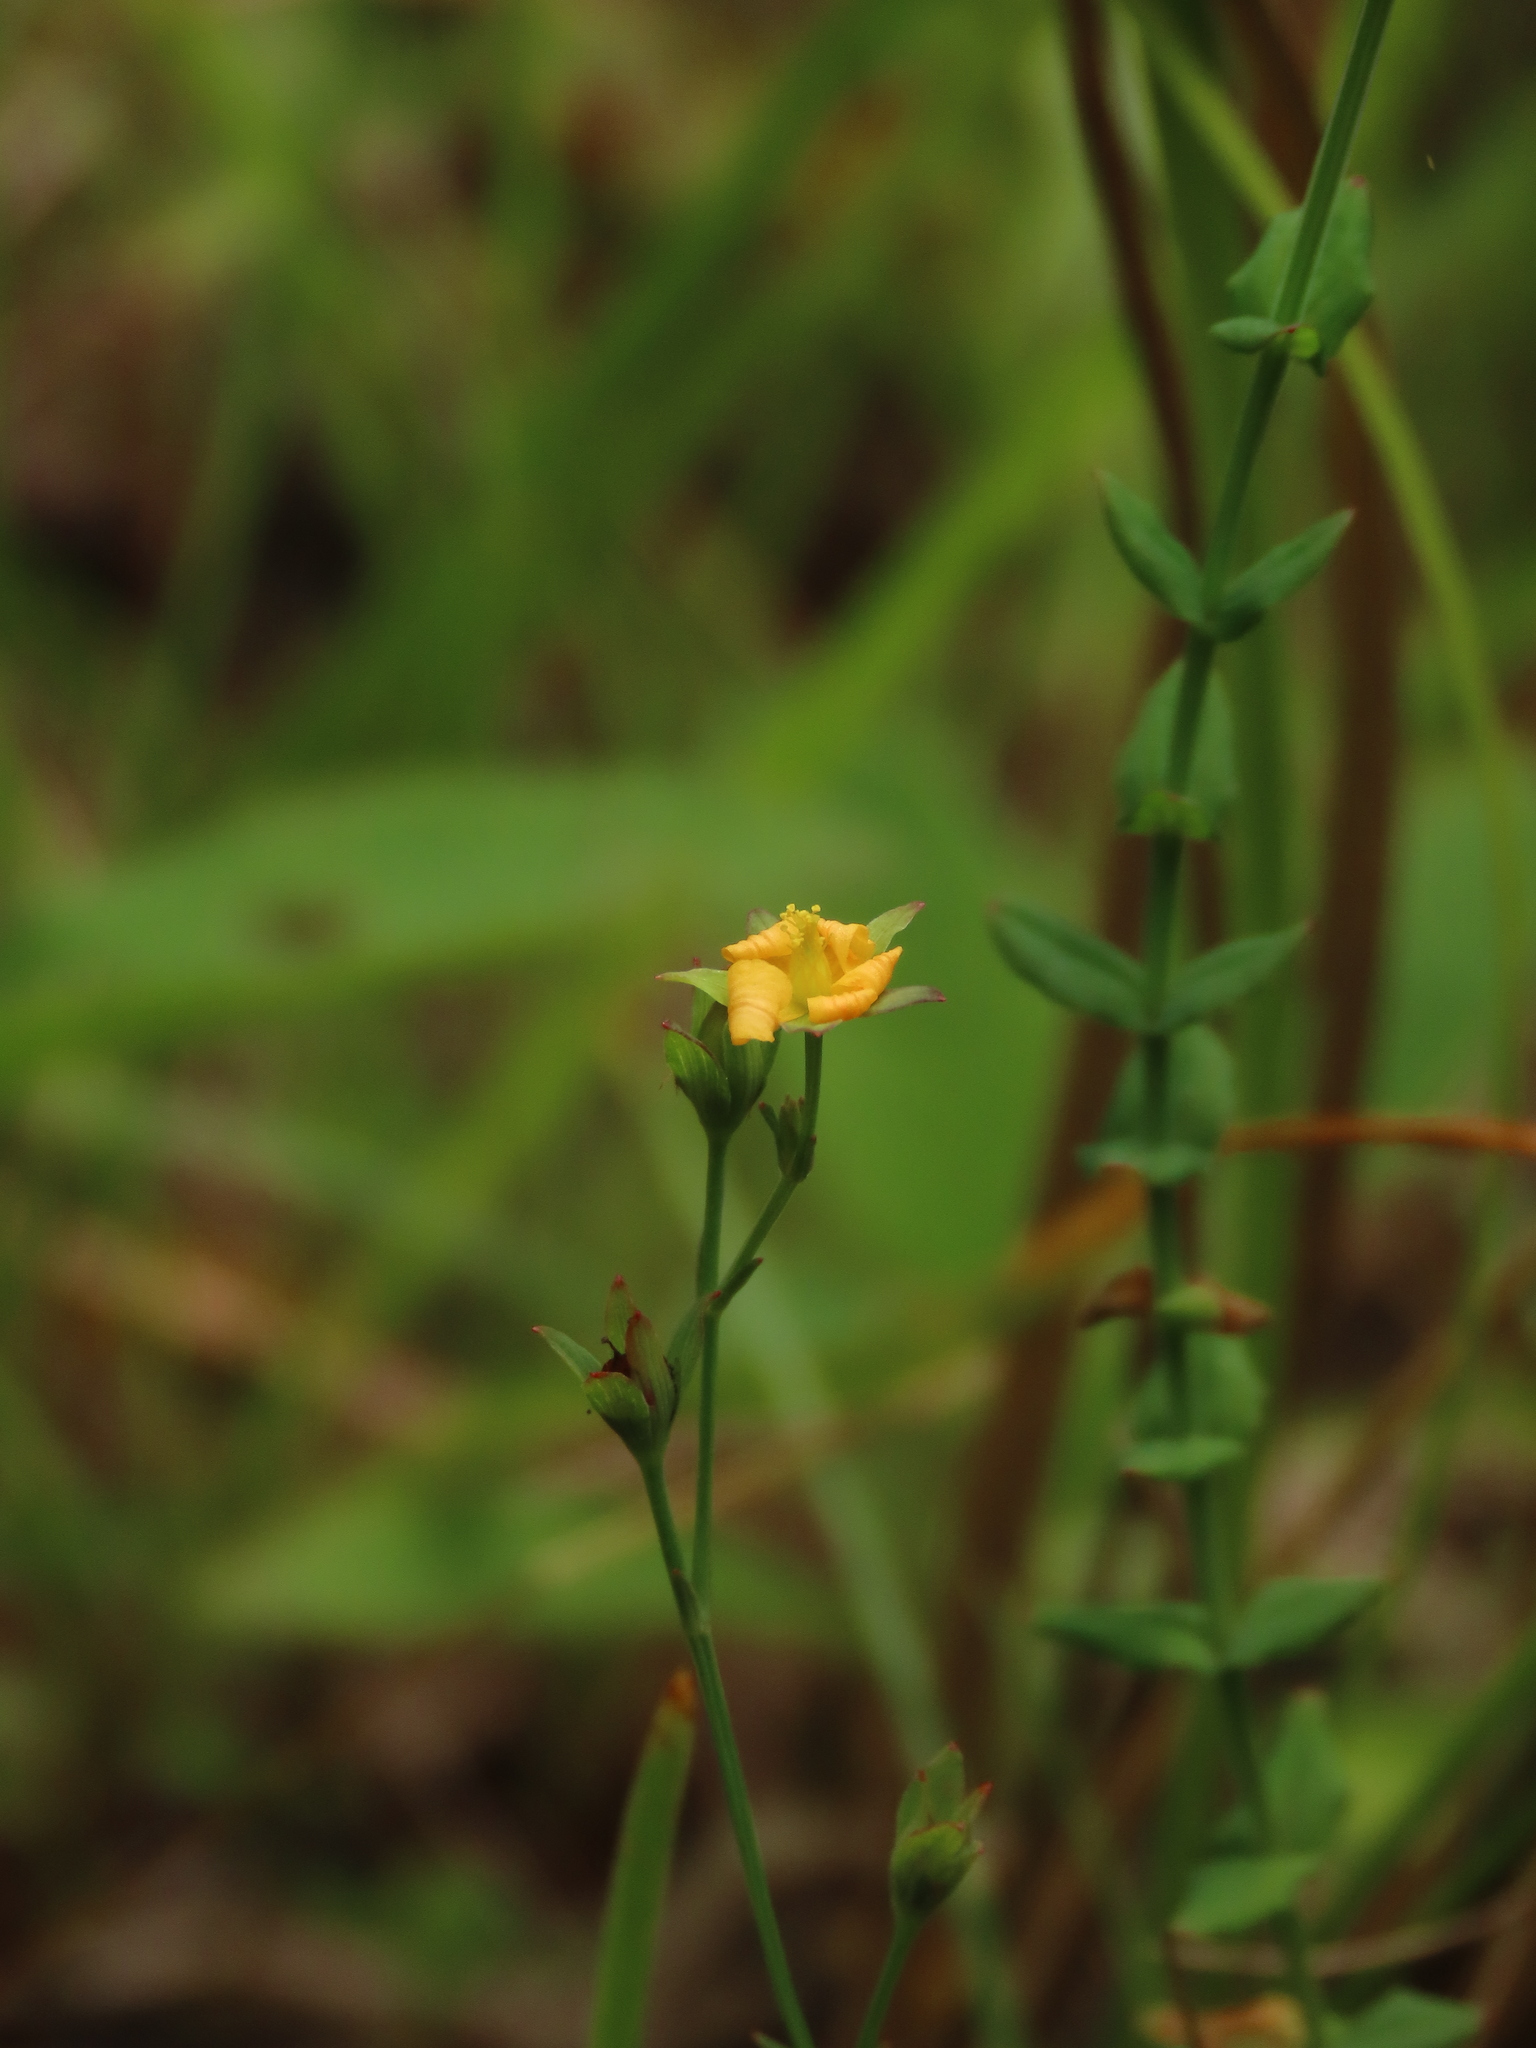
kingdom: Plantae
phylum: Tracheophyta
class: Magnoliopsida
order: Malpighiales
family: Hypericaceae
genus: Hypericum
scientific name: Hypericum japonicum
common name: Matted st. john's-wort
